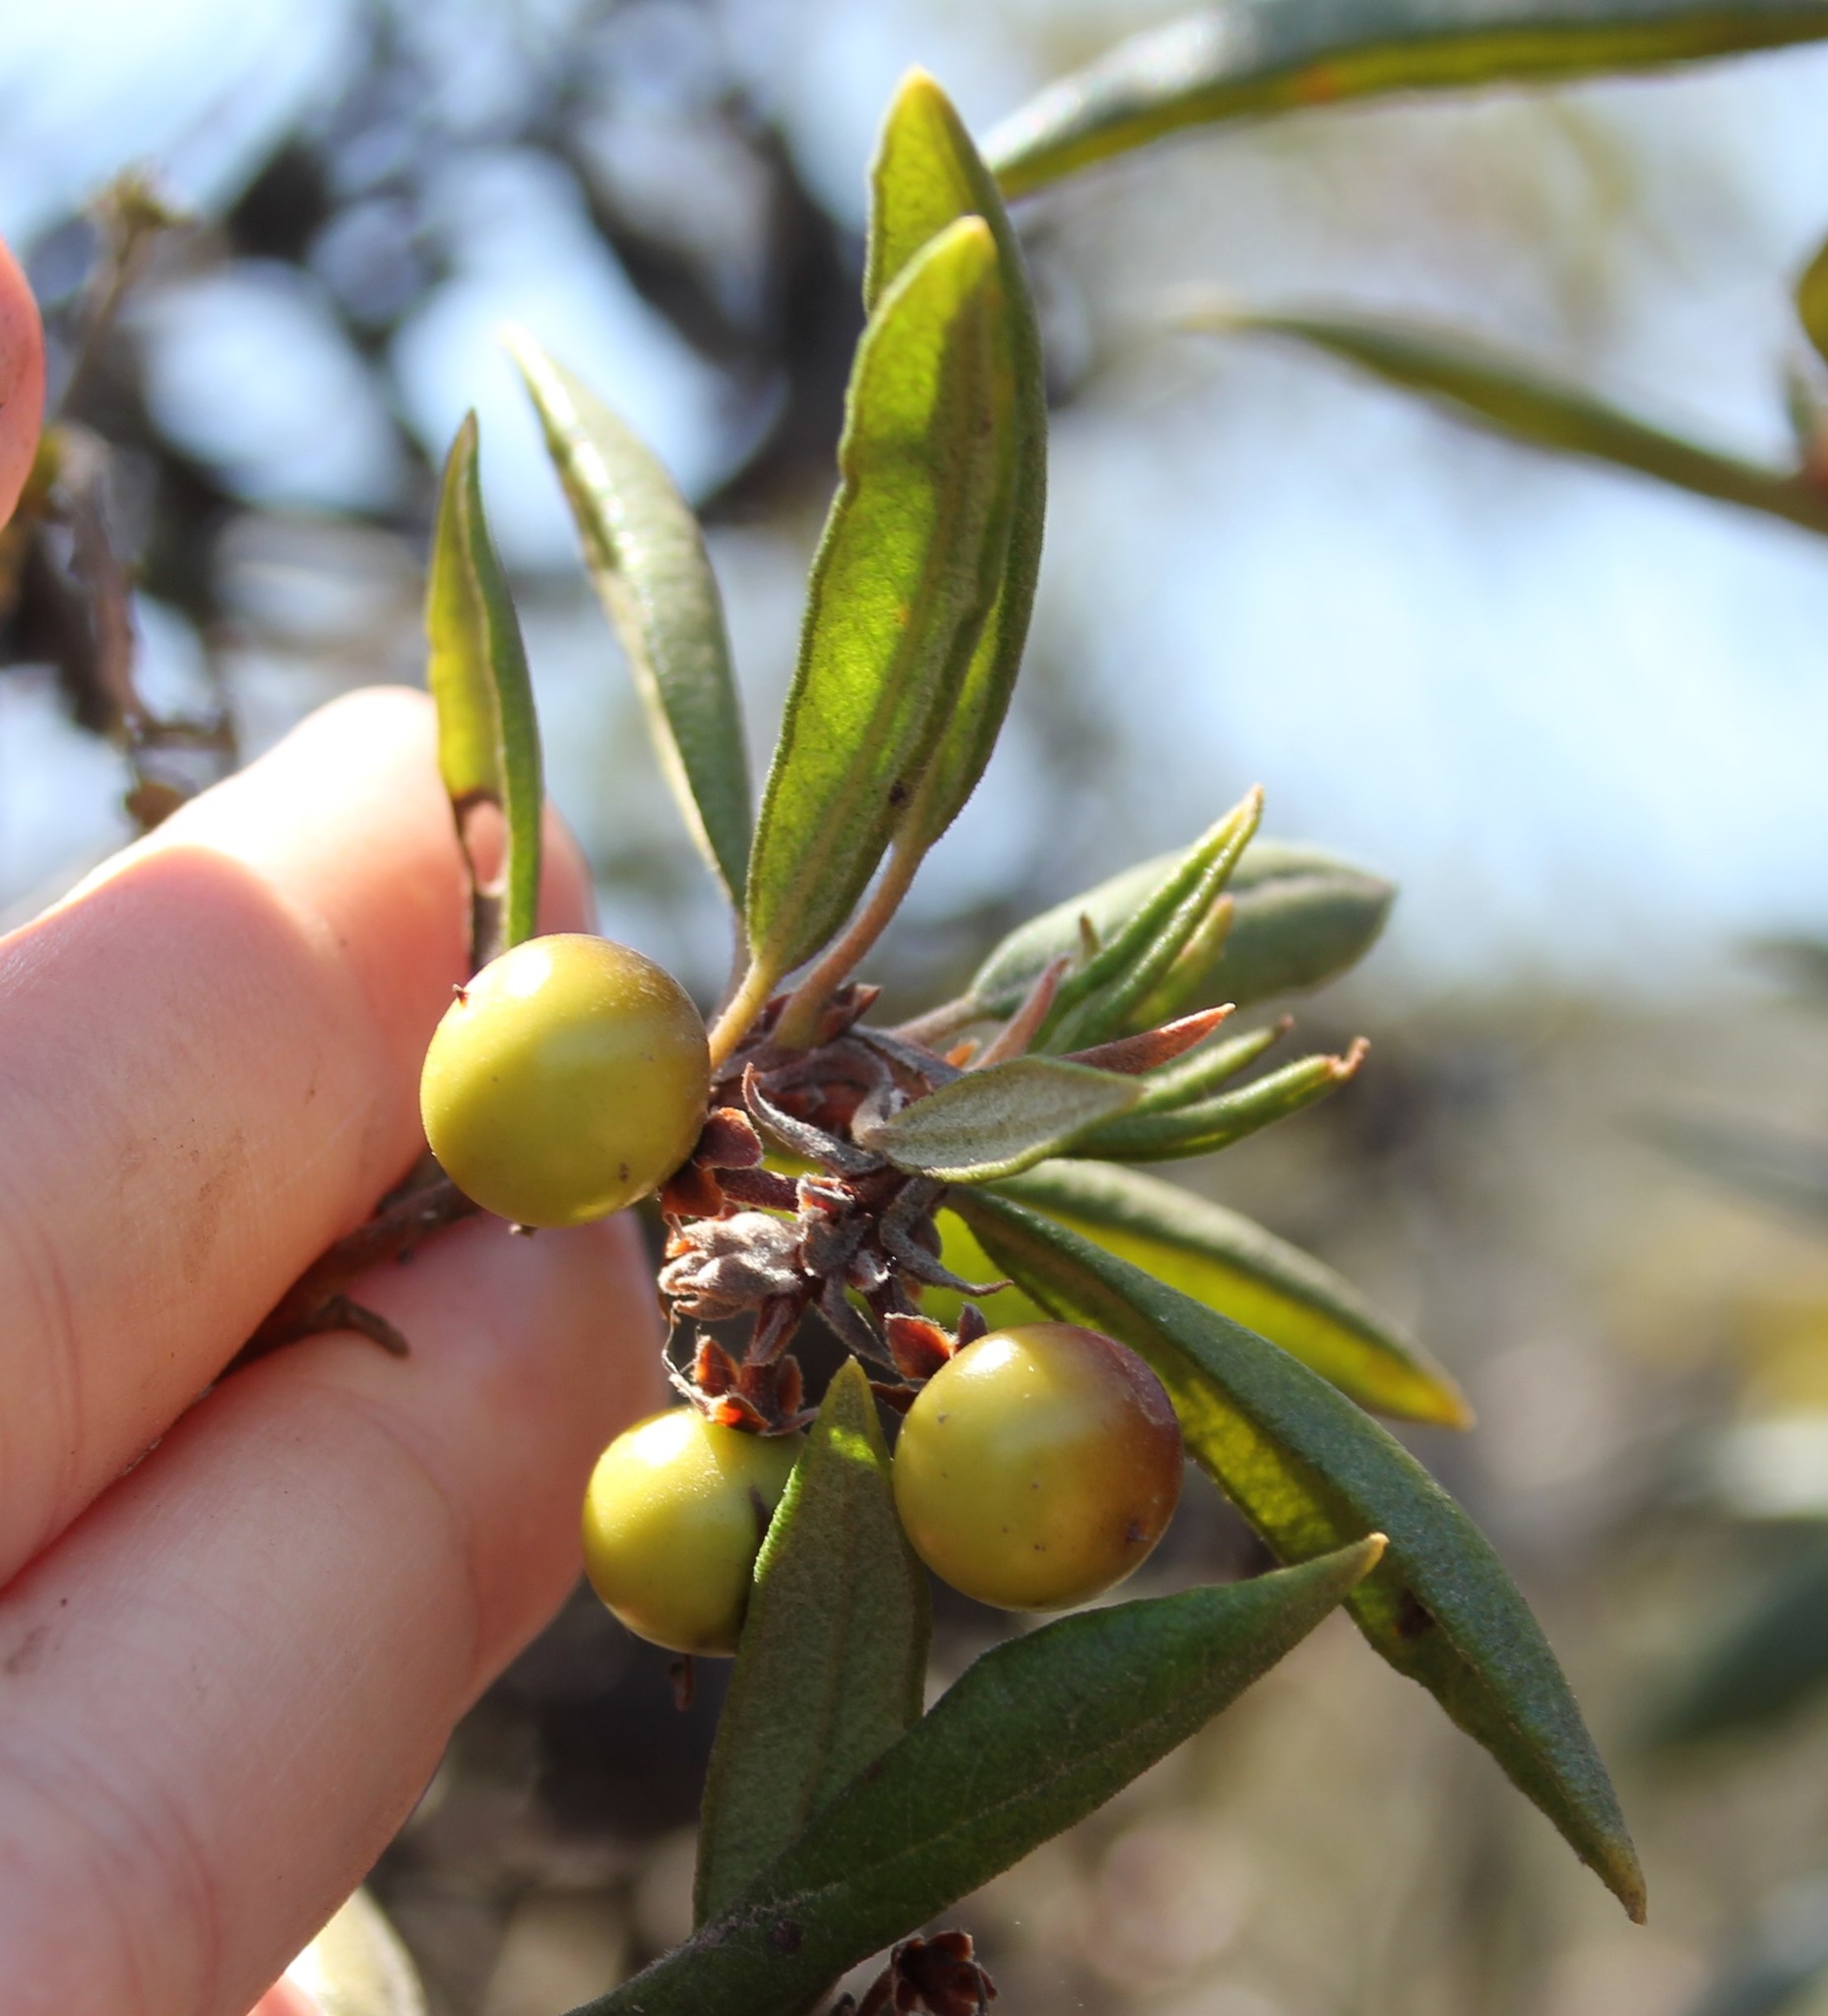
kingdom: Plantae
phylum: Tracheophyta
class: Magnoliopsida
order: Ericales
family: Ericaceae
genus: Arctostaphylos
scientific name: Arctostaphylos bicolor
